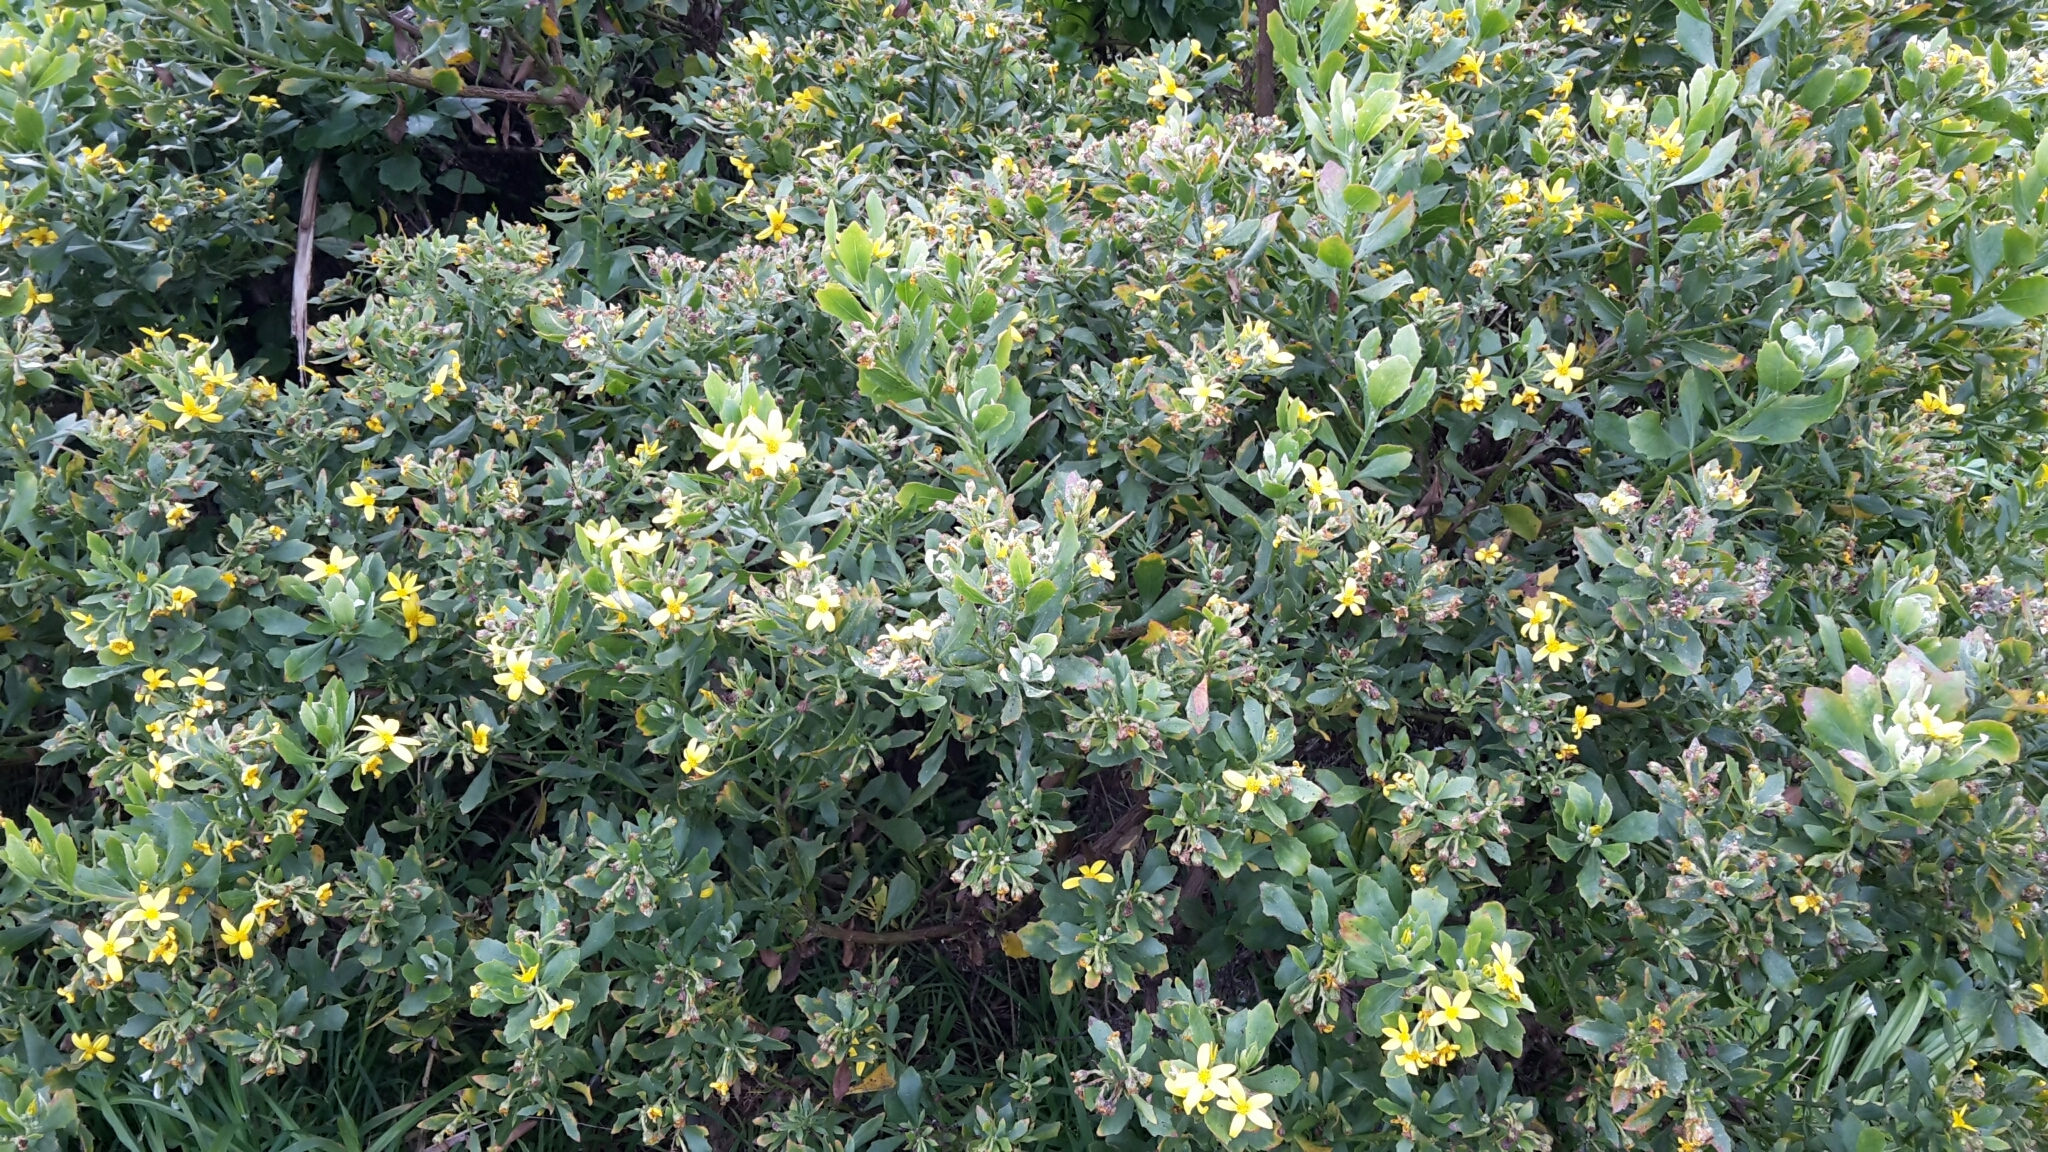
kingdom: Plantae
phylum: Tracheophyta
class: Magnoliopsida
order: Asterales
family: Asteraceae
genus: Osteospermum
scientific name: Osteospermum moniliferum
